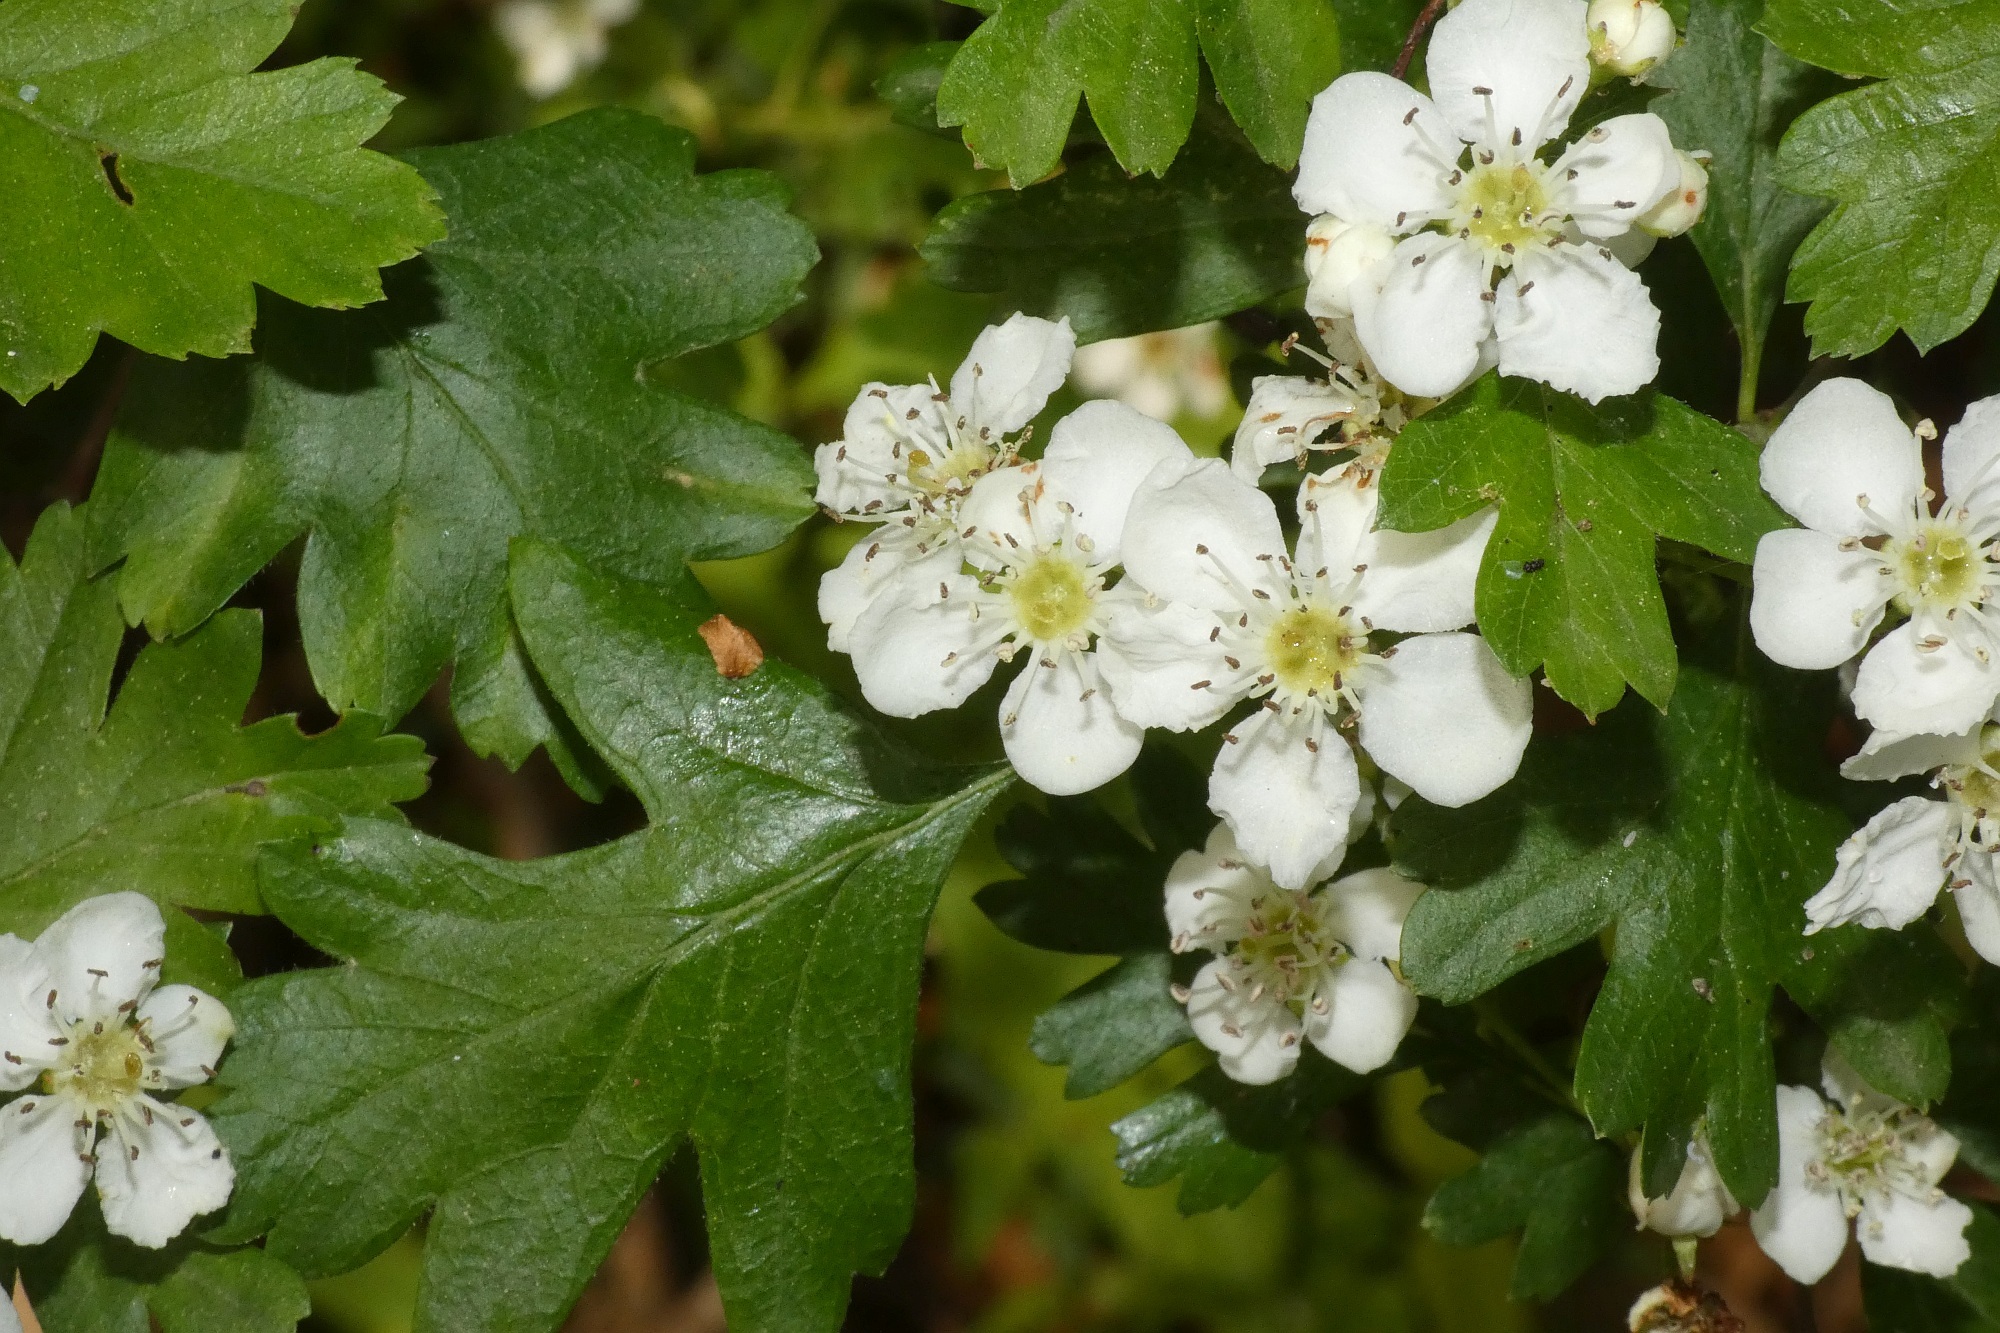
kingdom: Plantae
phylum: Tracheophyta
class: Magnoliopsida
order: Rosales
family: Rosaceae
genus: Crataegus
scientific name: Crataegus monogyna
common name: Hawthorn
